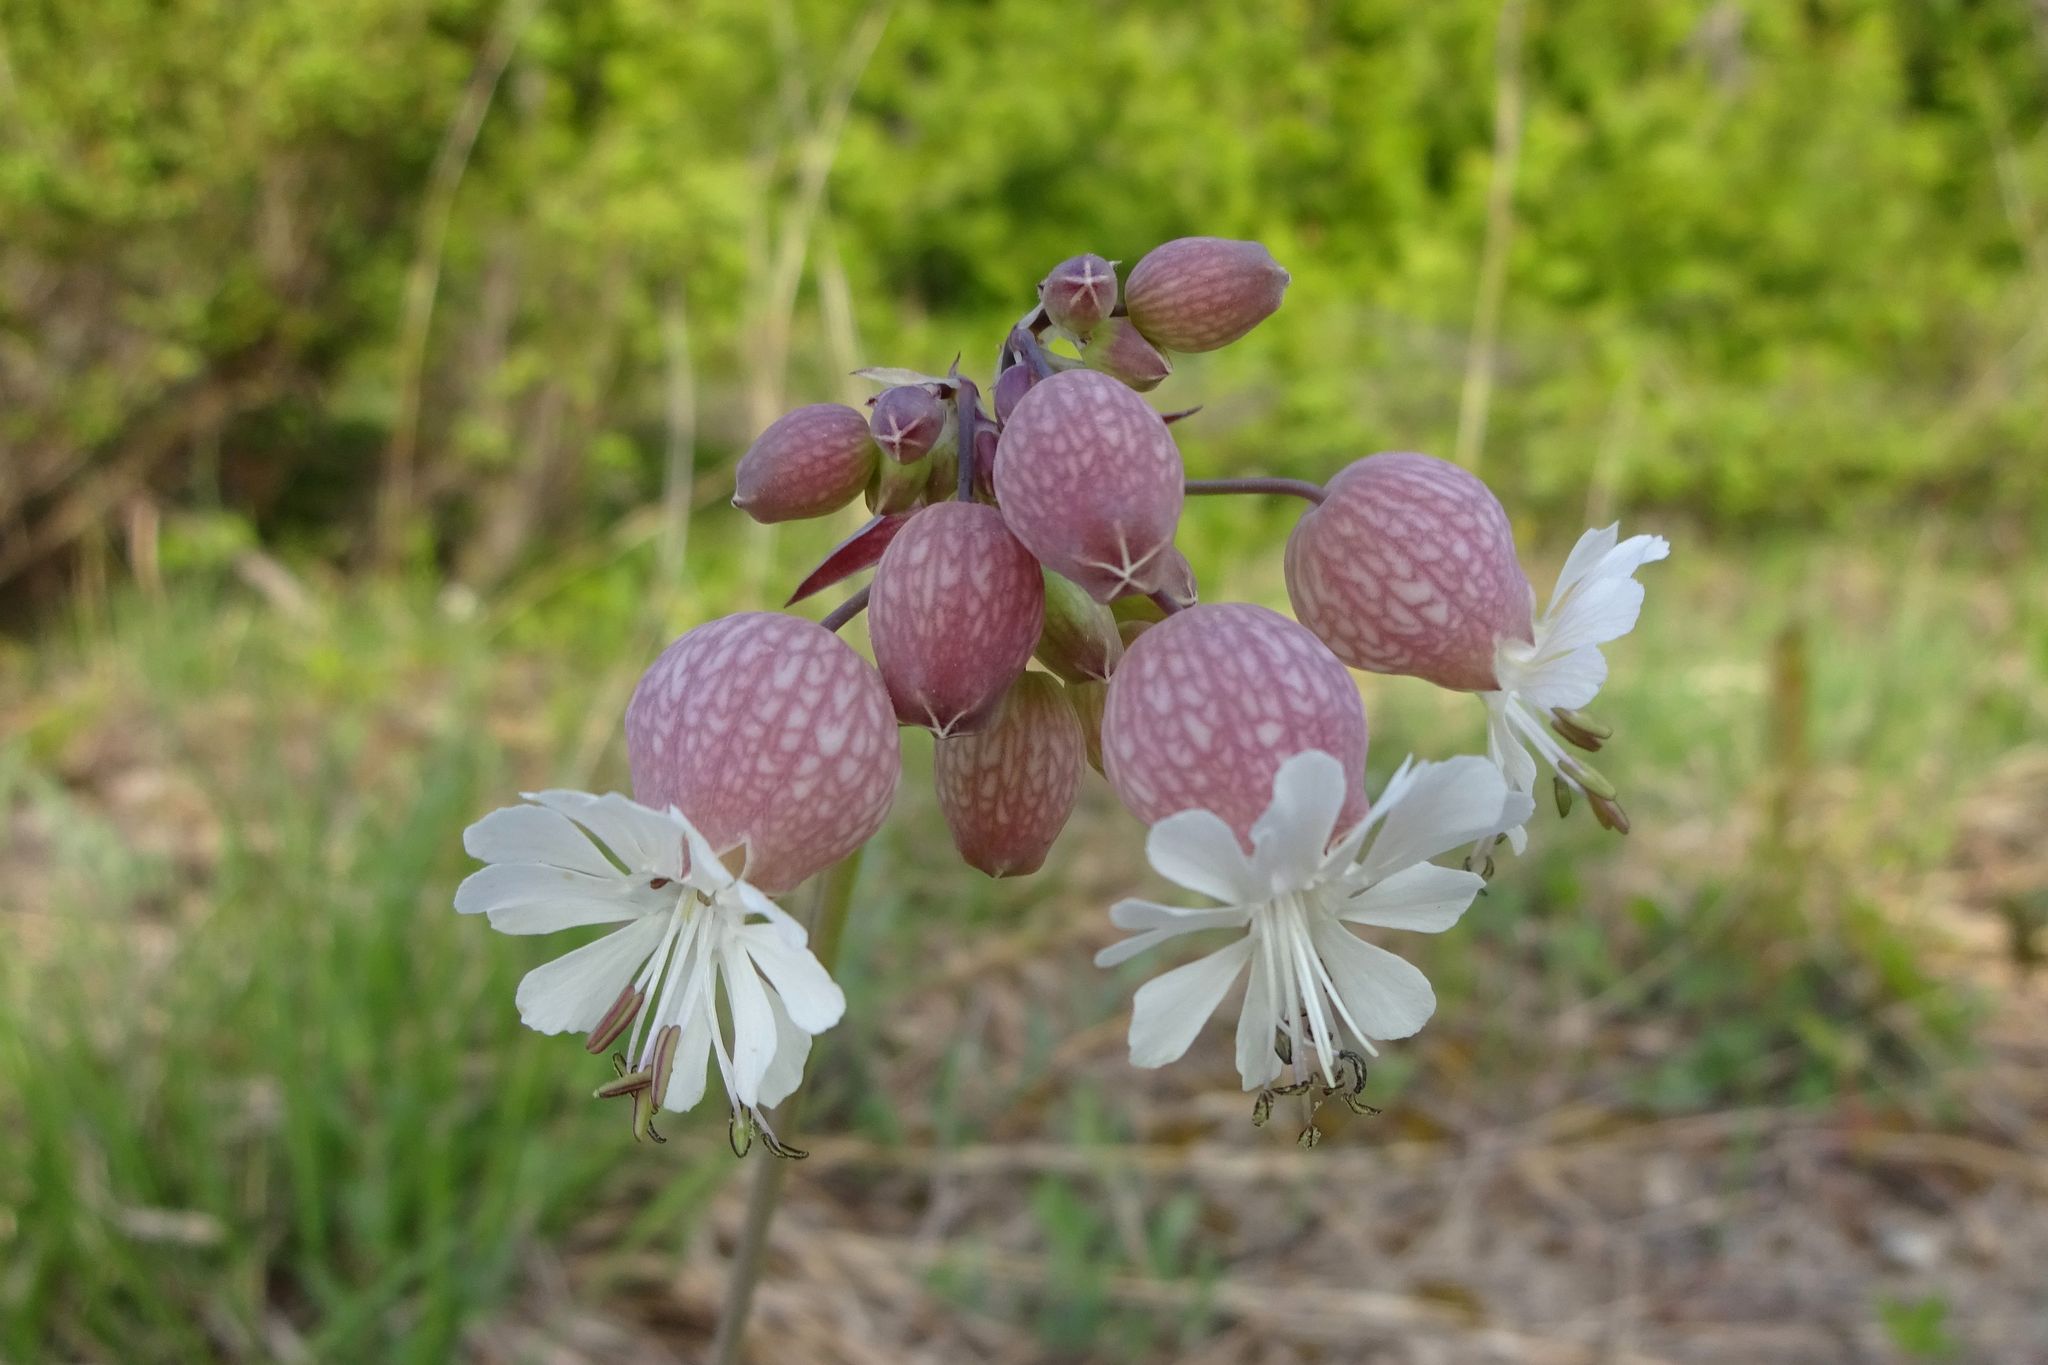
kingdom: Plantae
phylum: Tracheophyta
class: Magnoliopsida
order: Caryophyllales
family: Caryophyllaceae
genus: Silene
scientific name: Silene vulgaris
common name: Bladder campion
